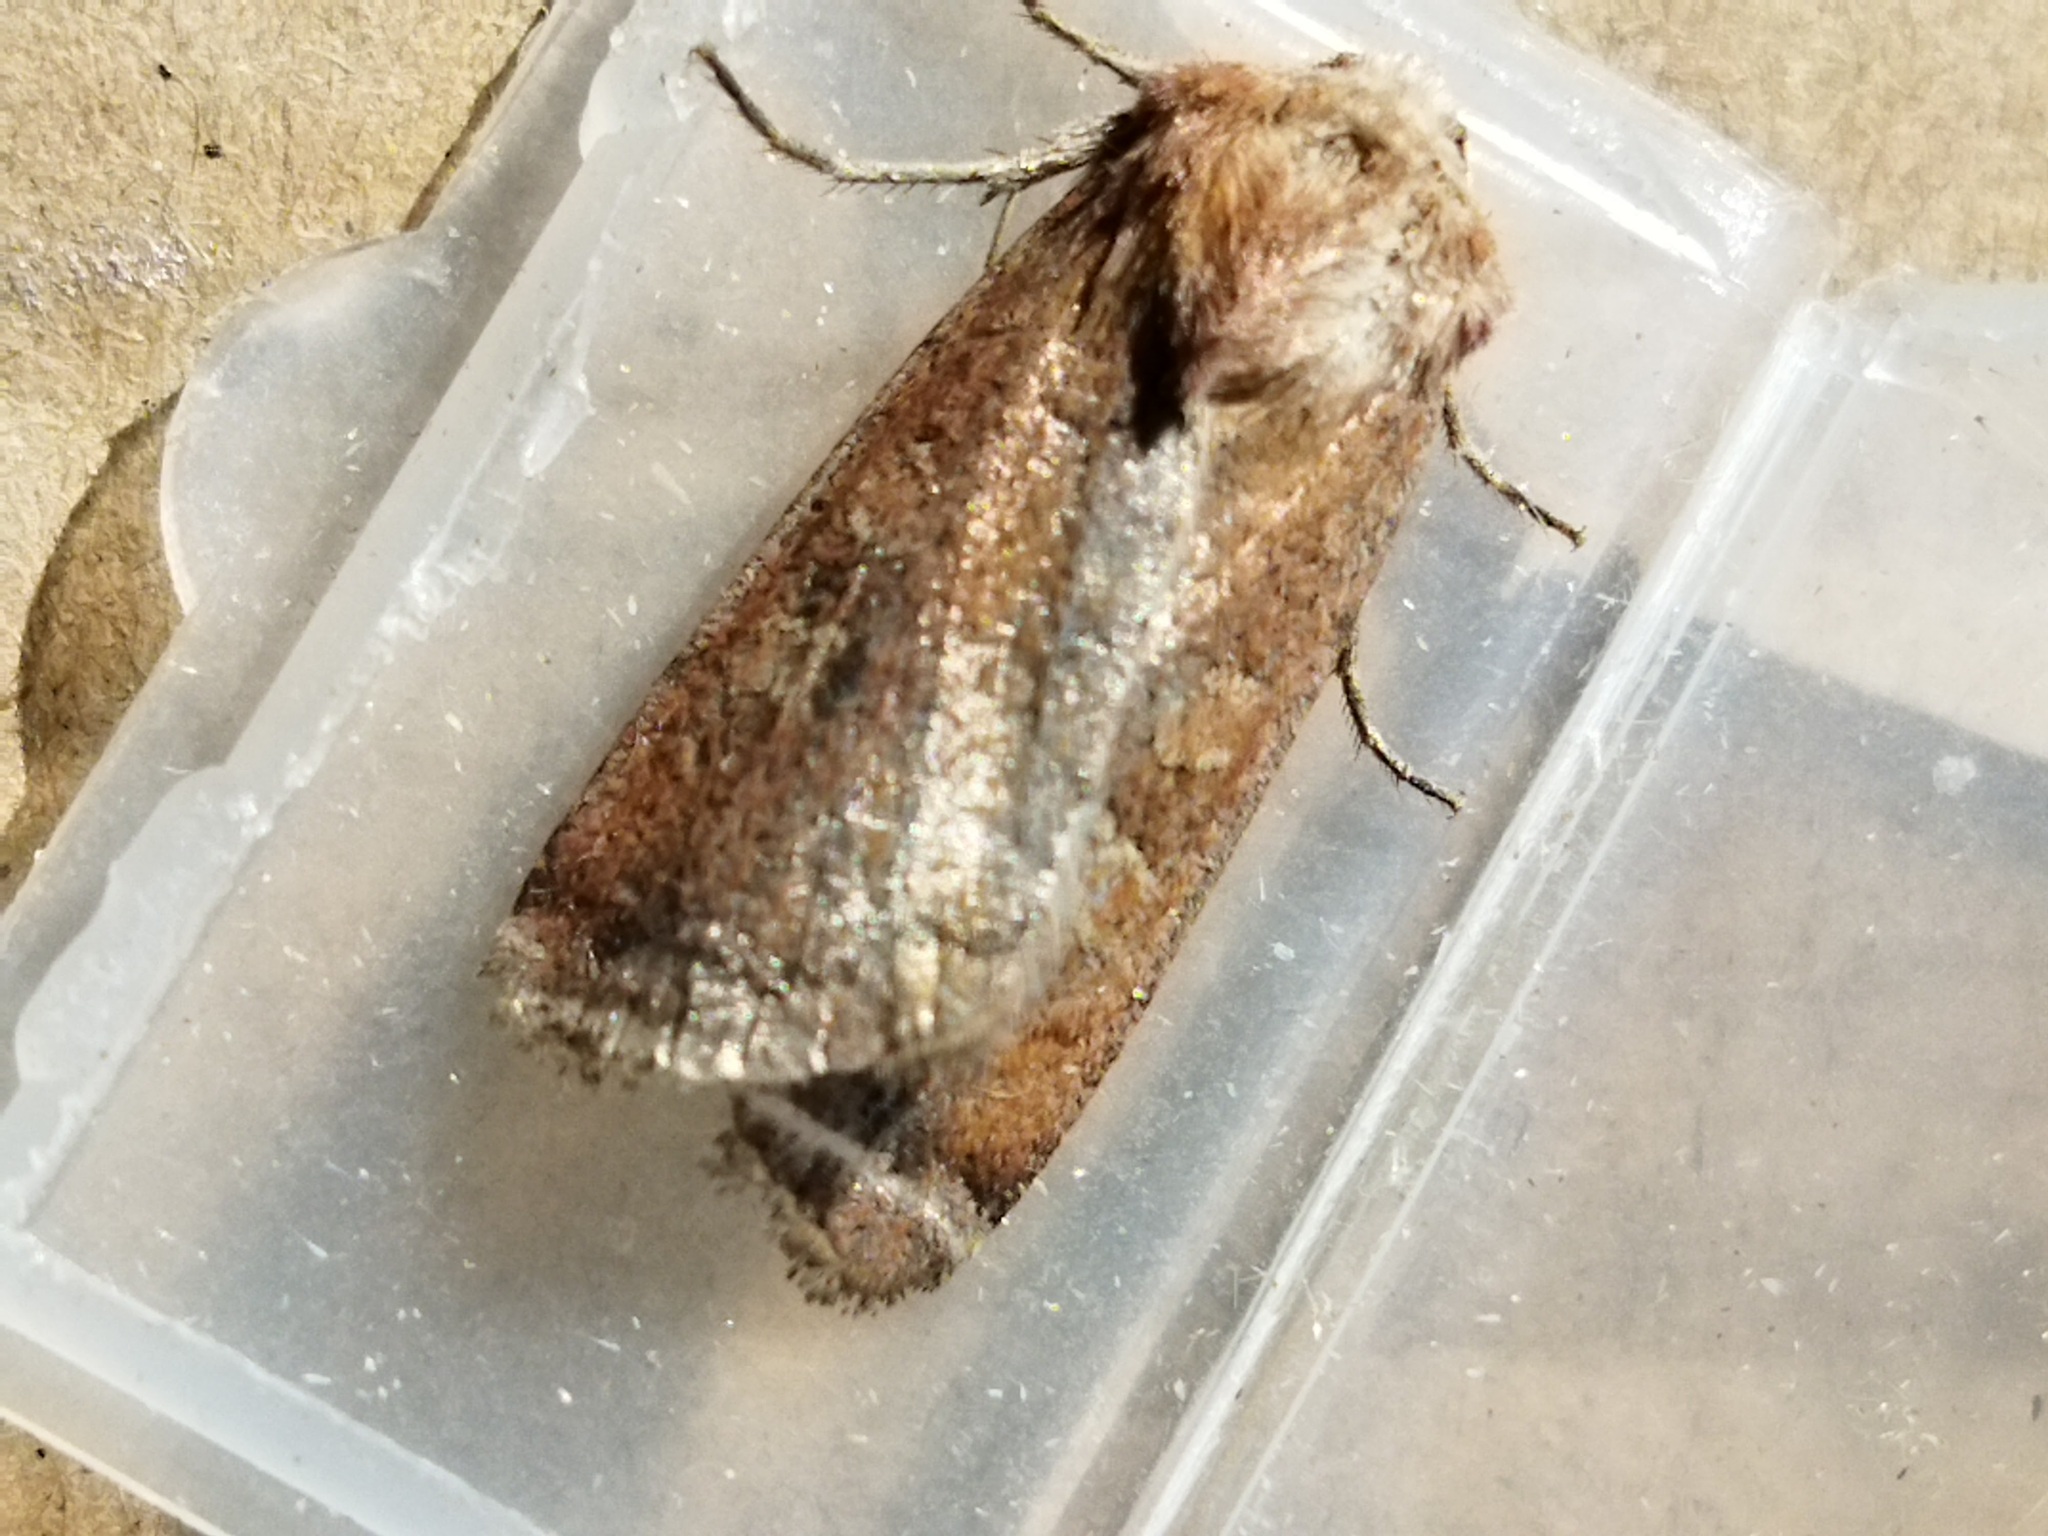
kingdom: Animalia
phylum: Arthropoda
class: Insecta
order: Lepidoptera
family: Noctuidae
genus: Xestia
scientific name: Xestia xanthographa
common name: Square-spot rustic
